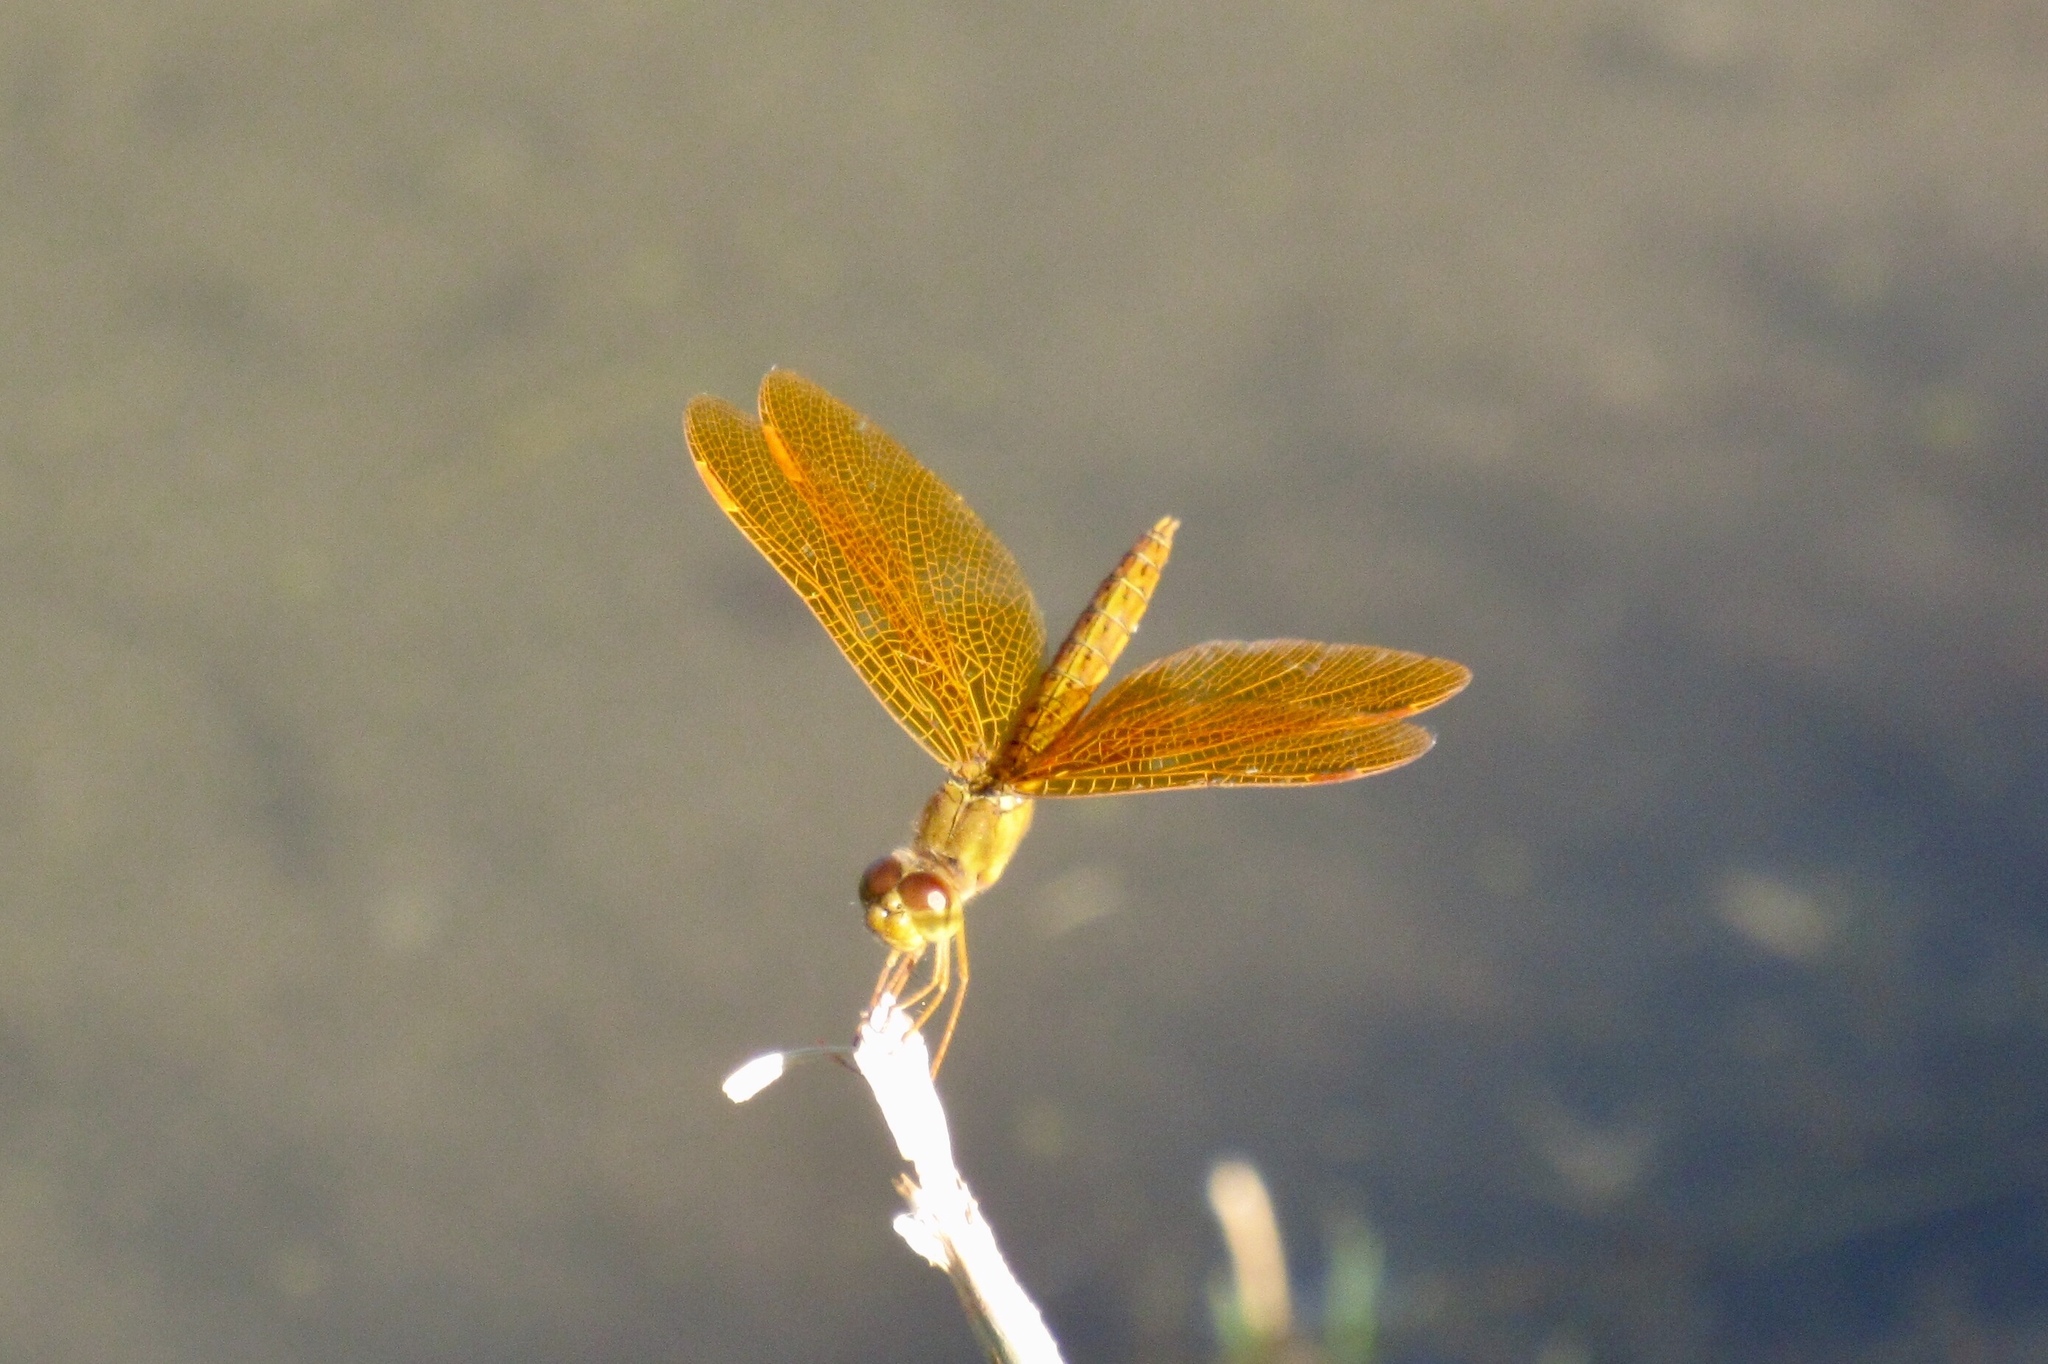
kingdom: Animalia
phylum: Arthropoda
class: Insecta
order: Odonata
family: Libellulidae
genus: Perithemis
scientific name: Perithemis intensa
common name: Mexican amberwing
